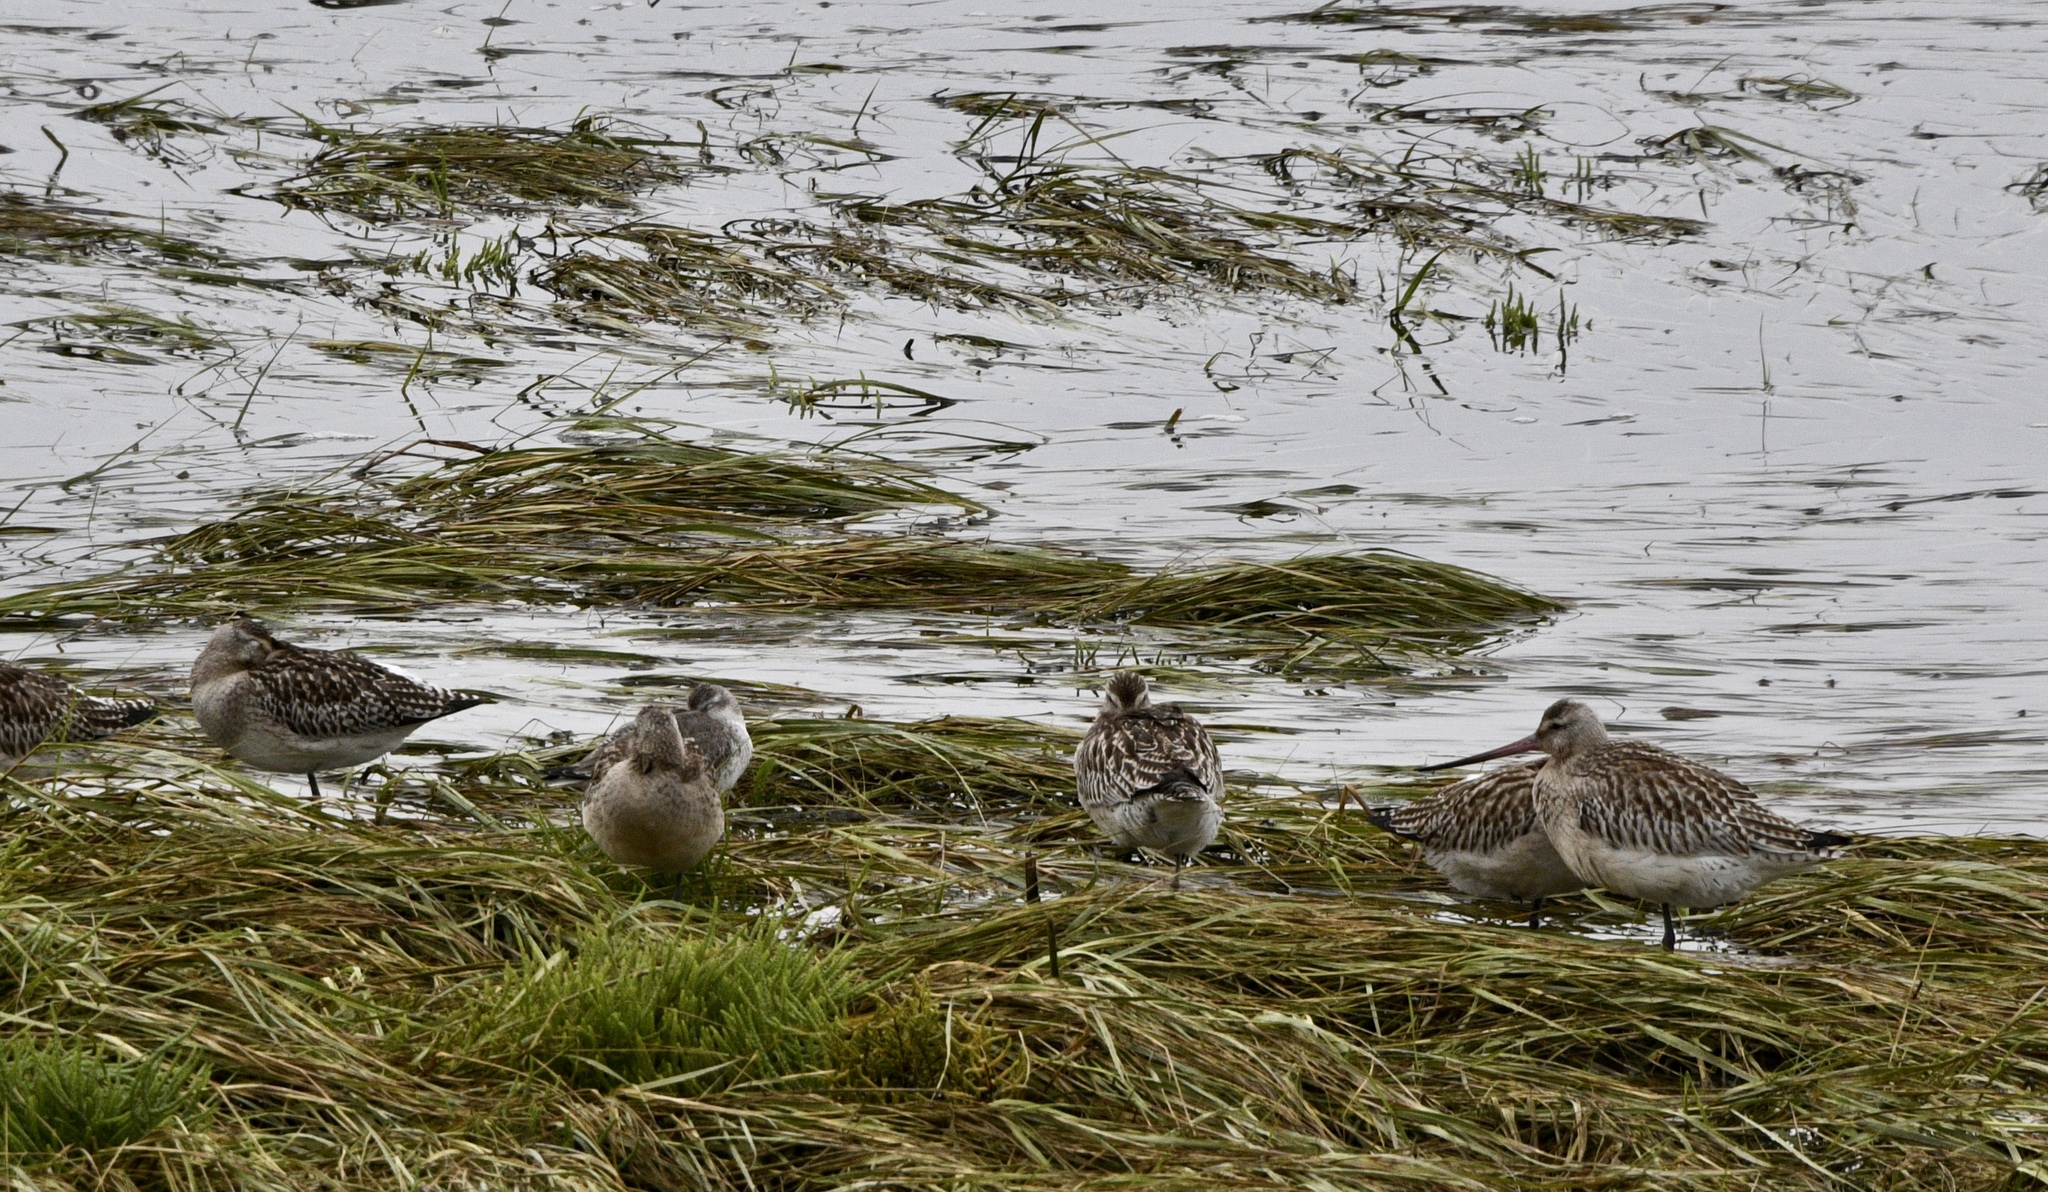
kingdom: Animalia
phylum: Chordata
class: Aves
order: Charadriiformes
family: Scolopacidae
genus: Limosa
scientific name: Limosa lapponica
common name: Bar-tailed godwit
